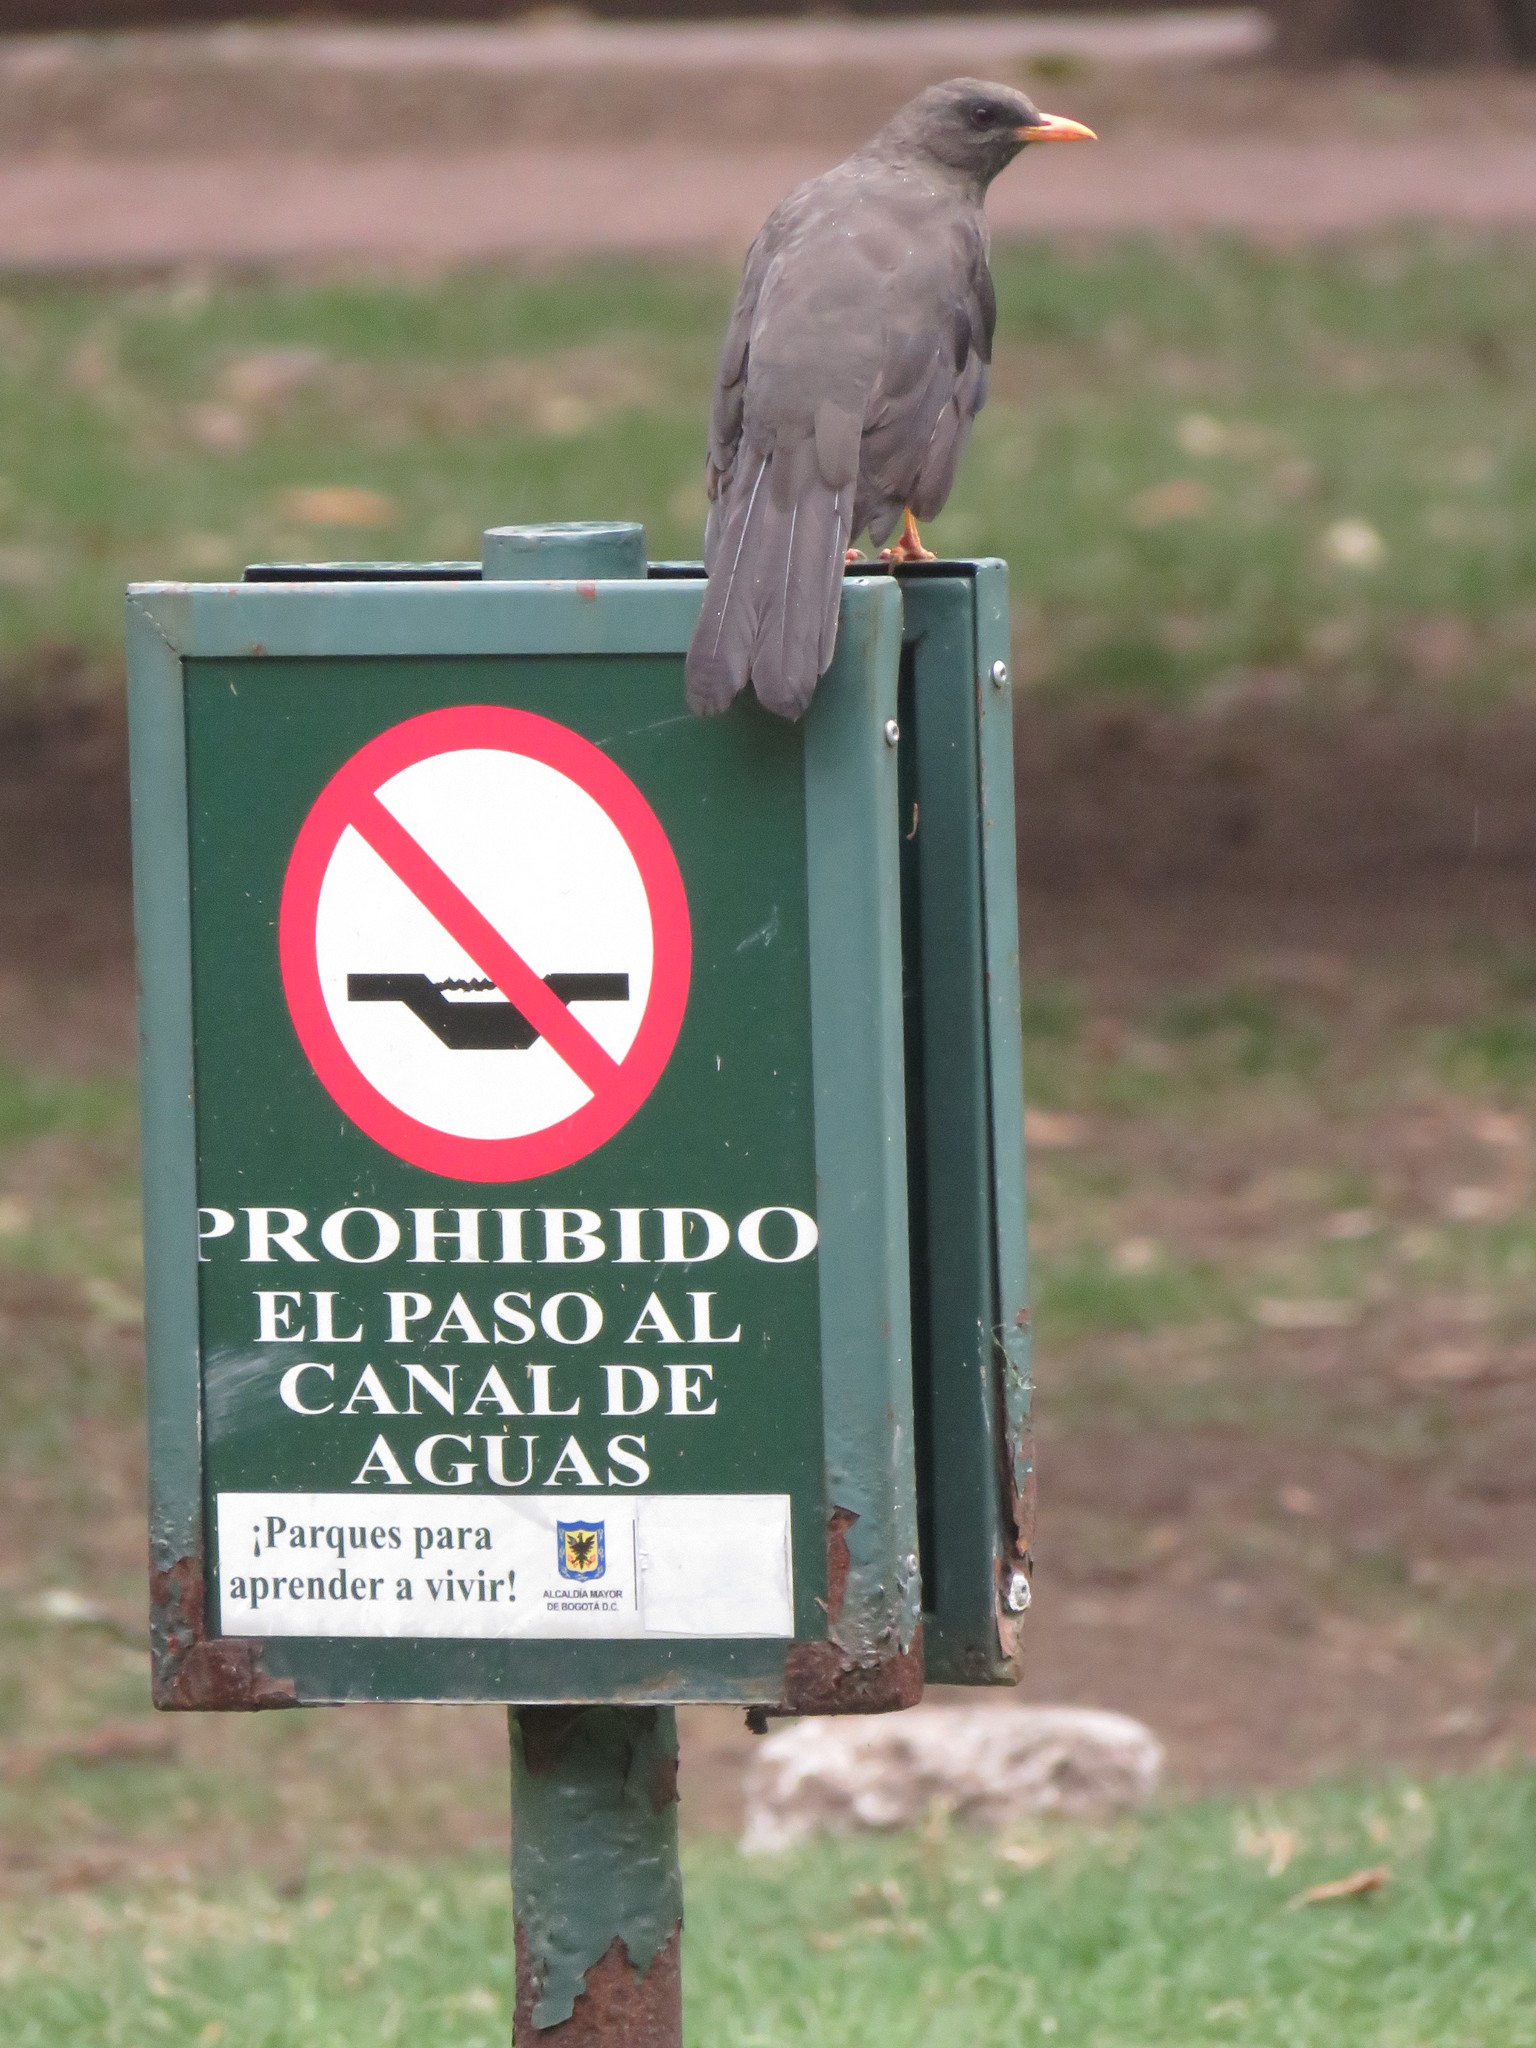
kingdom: Animalia
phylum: Chordata
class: Aves
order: Passeriformes
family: Turdidae
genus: Turdus
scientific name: Turdus fuscater
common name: Great thrush
